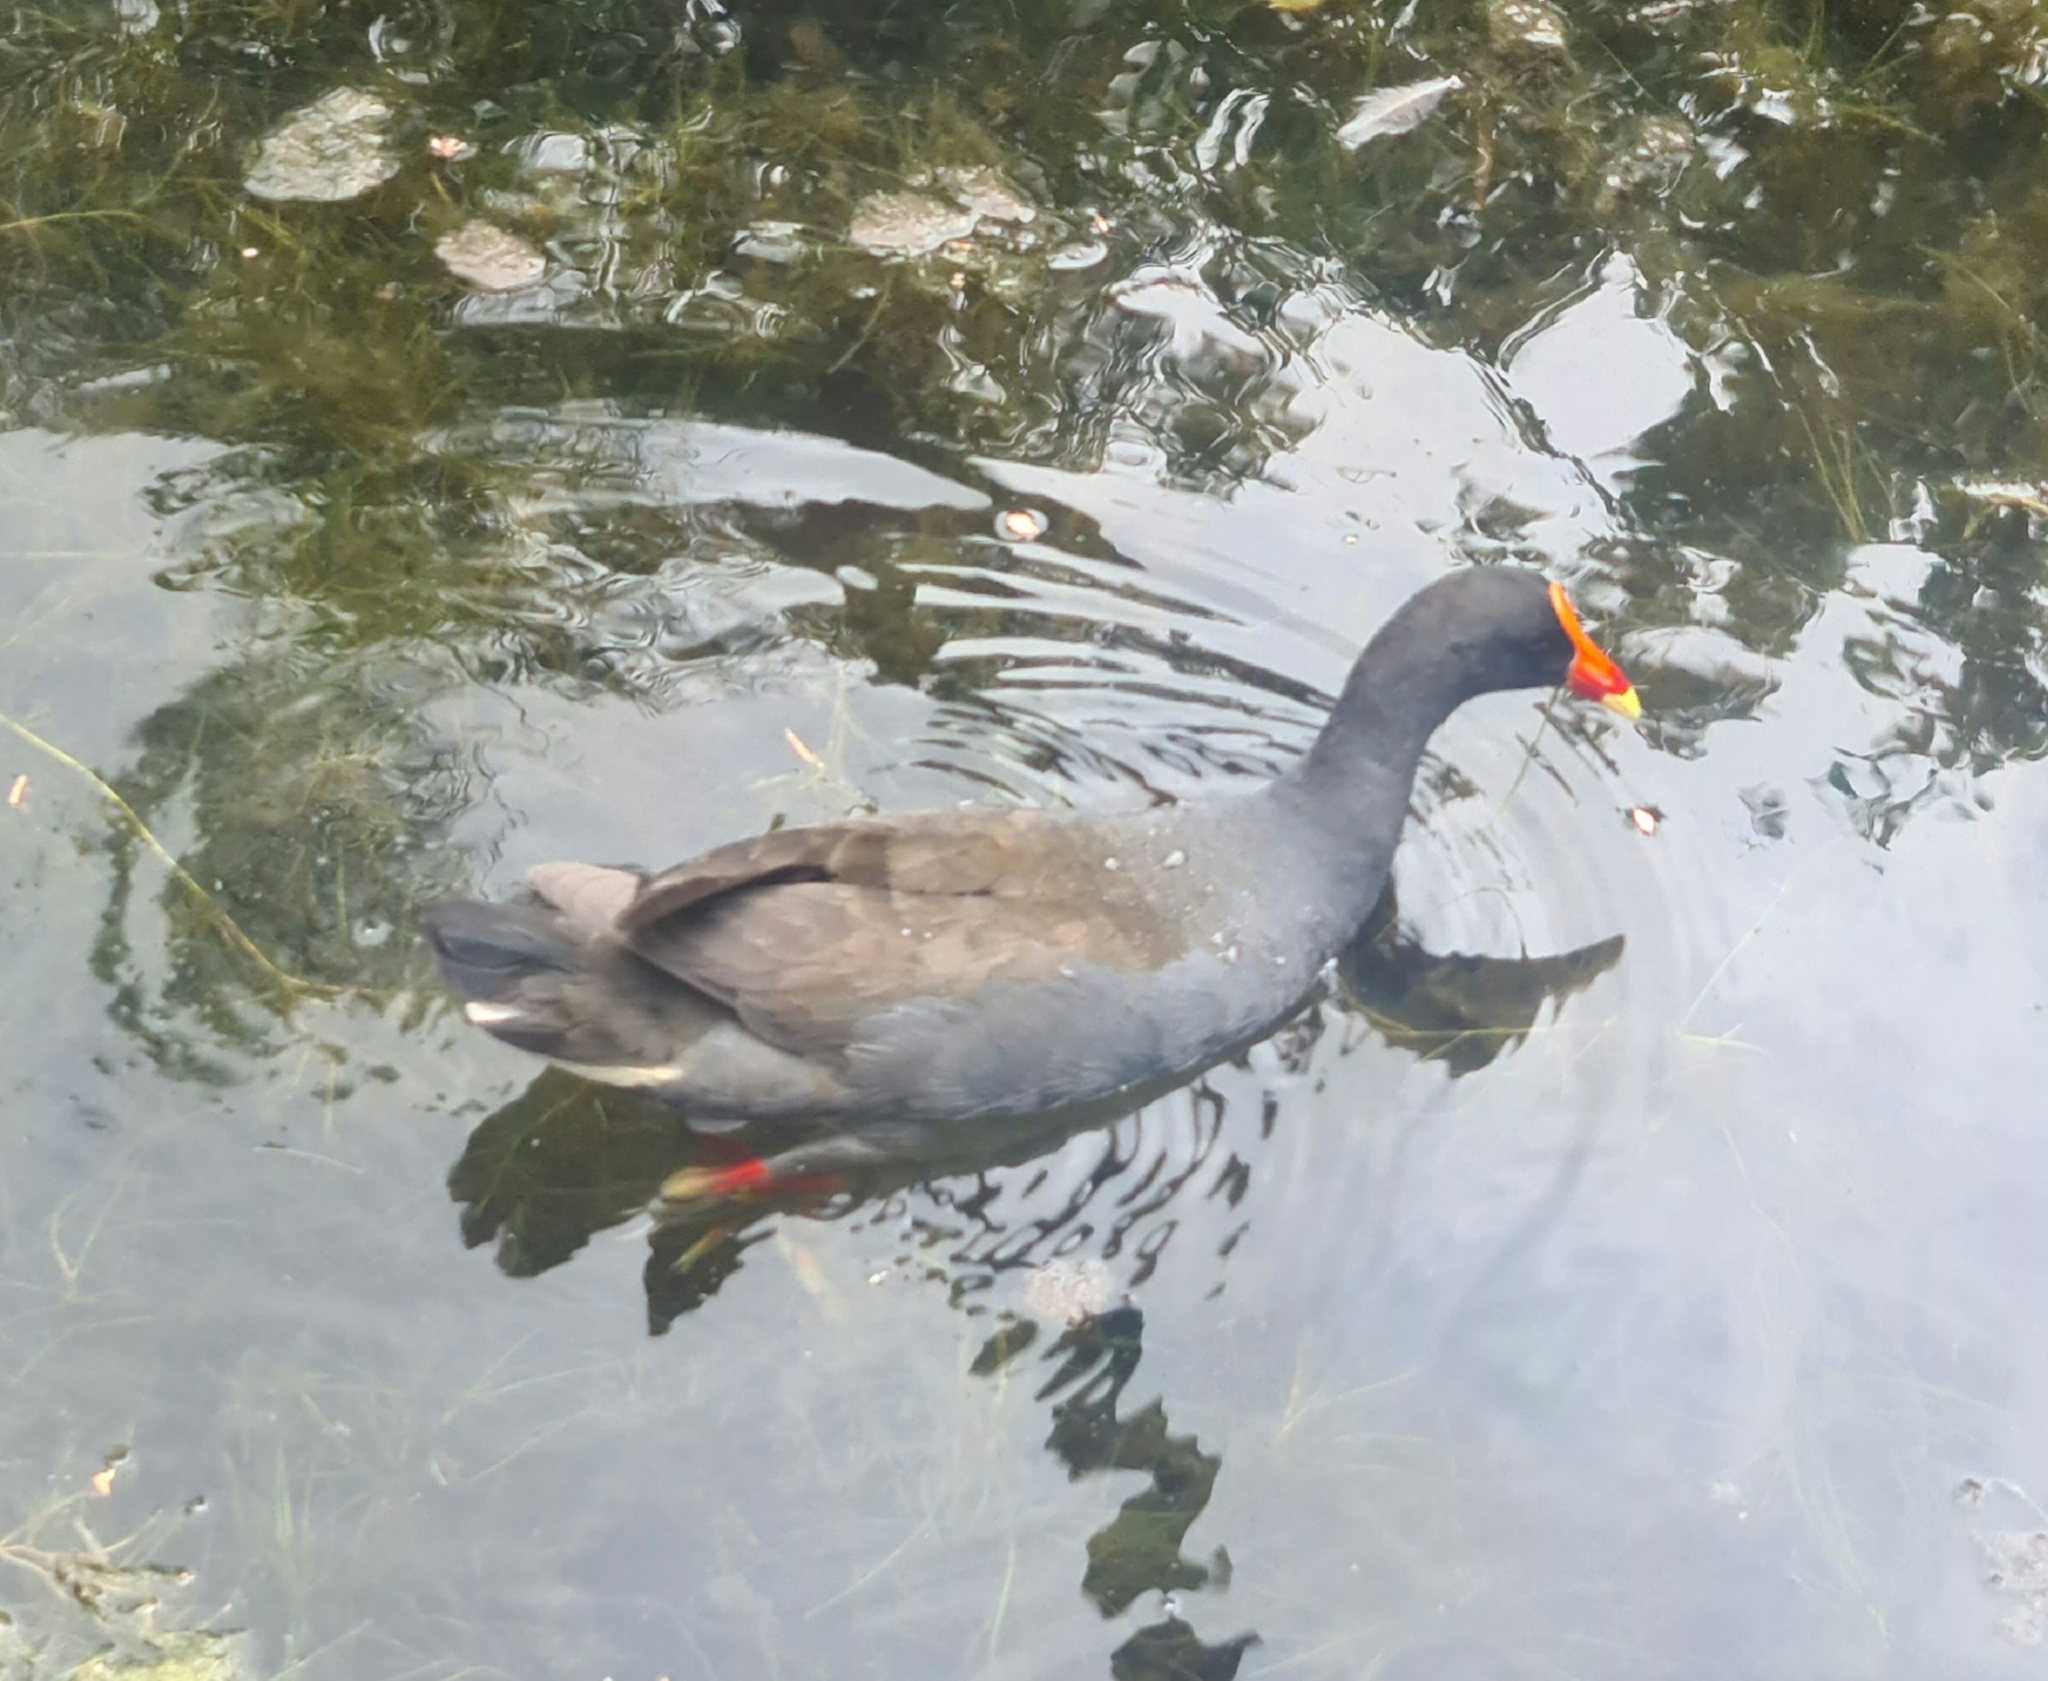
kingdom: Animalia
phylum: Chordata
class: Aves
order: Gruiformes
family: Rallidae
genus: Gallinula
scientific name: Gallinula tenebrosa
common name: Dusky moorhen
